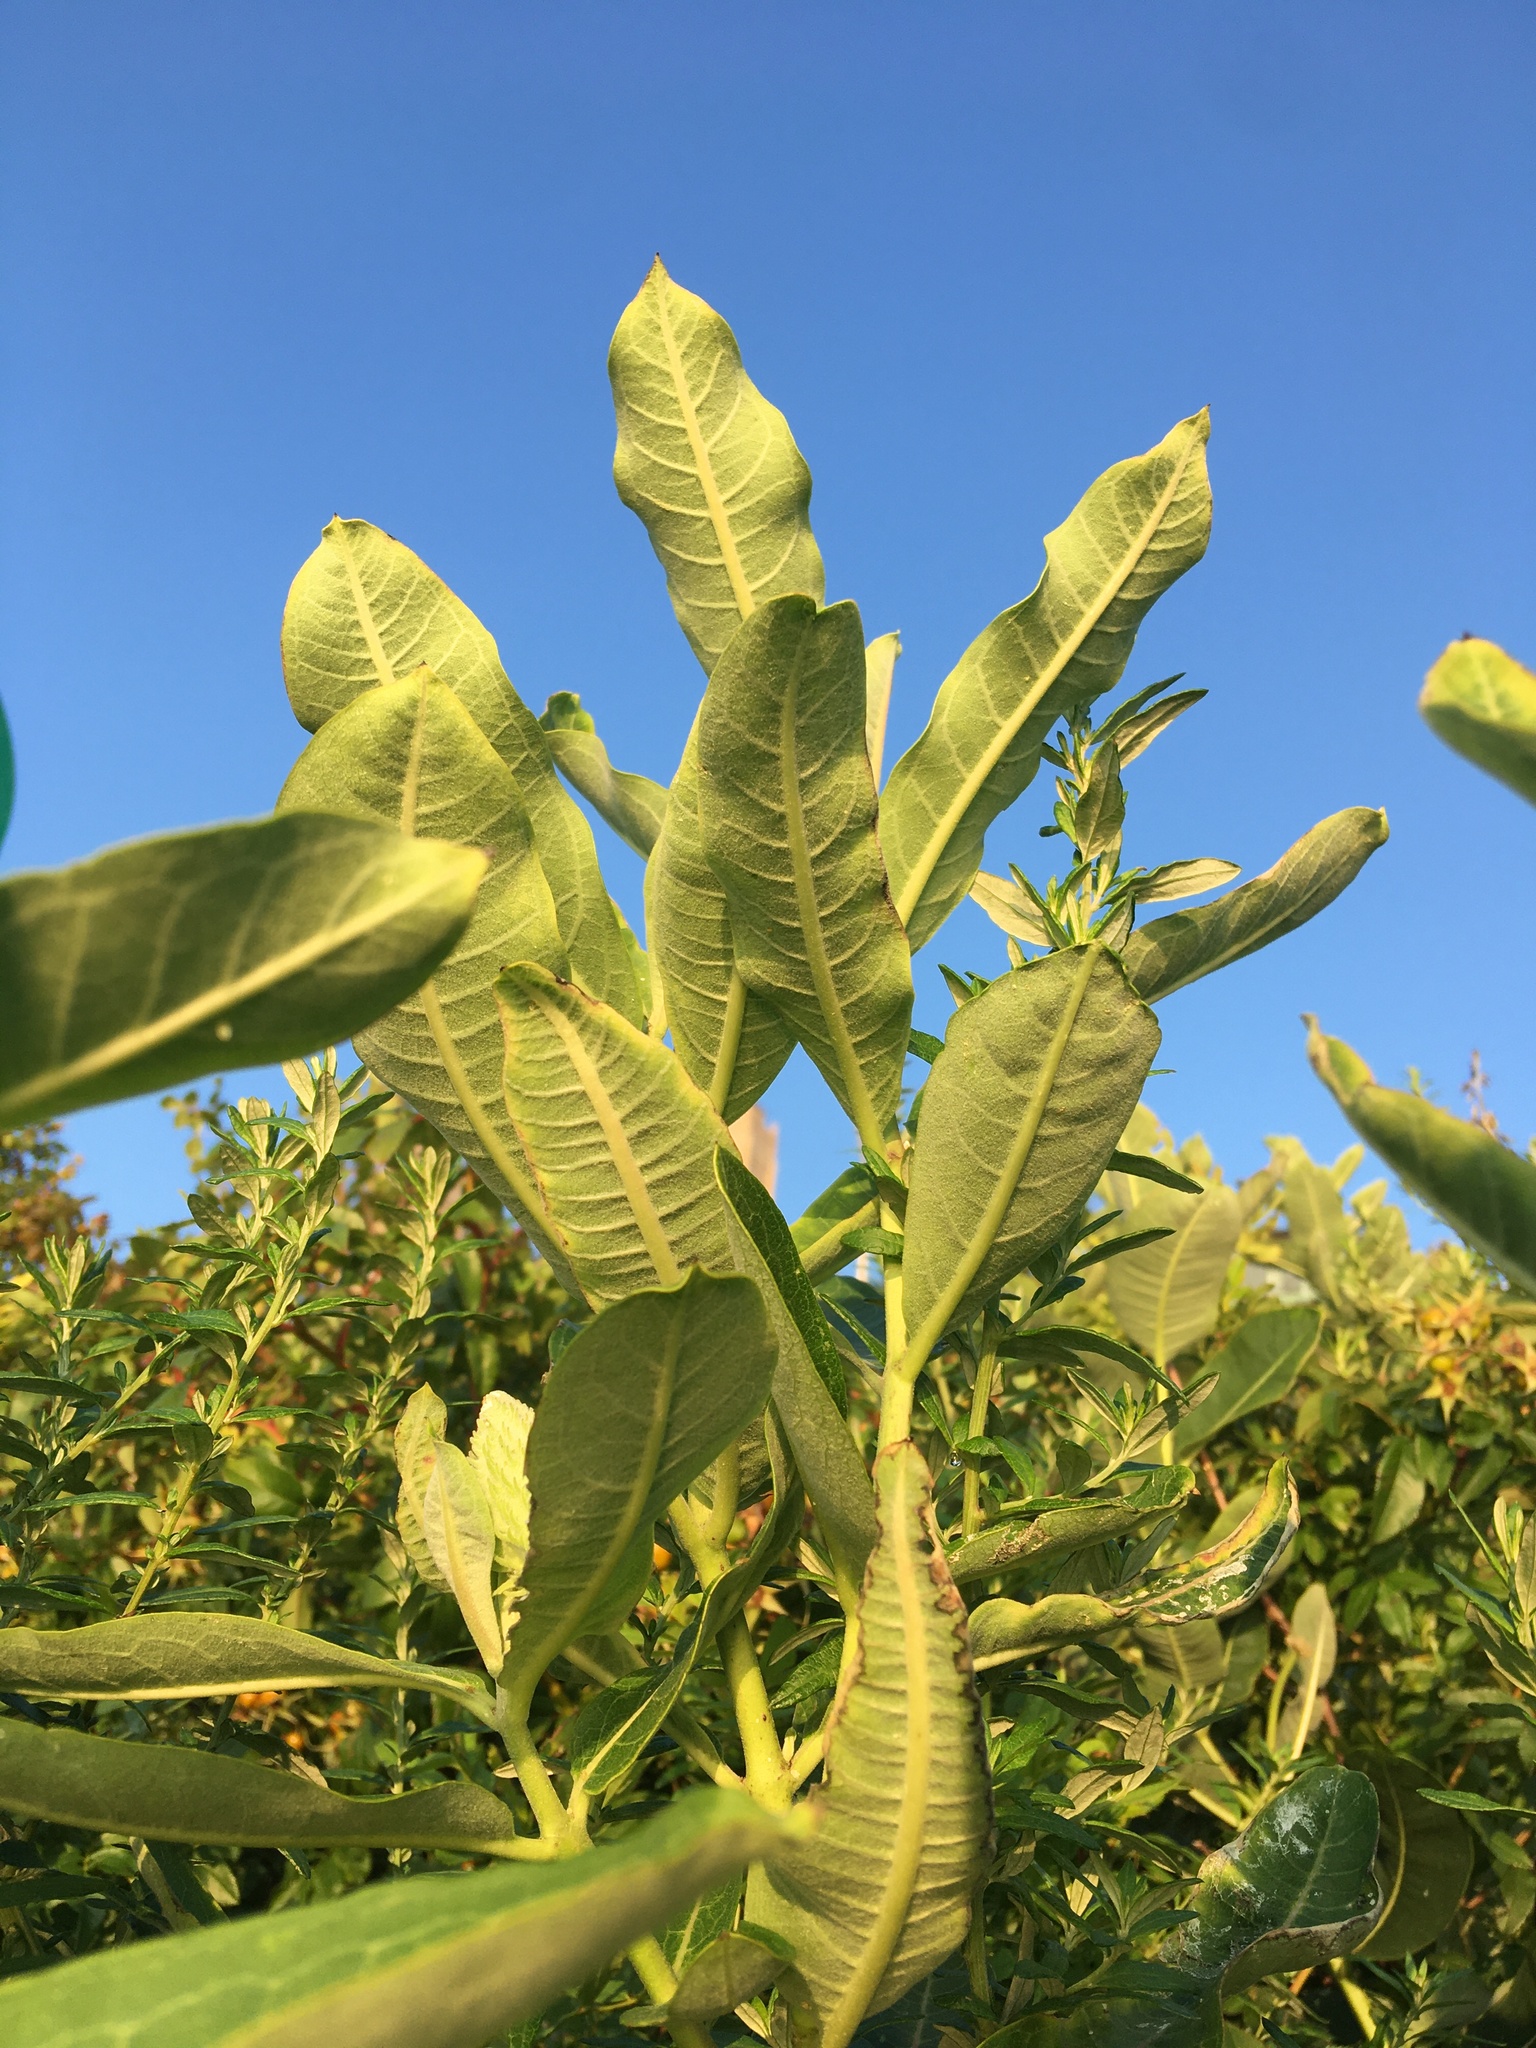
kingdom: Plantae
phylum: Tracheophyta
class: Magnoliopsida
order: Gentianales
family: Apocynaceae
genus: Asclepias
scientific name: Asclepias syriaca
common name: Common milkweed
